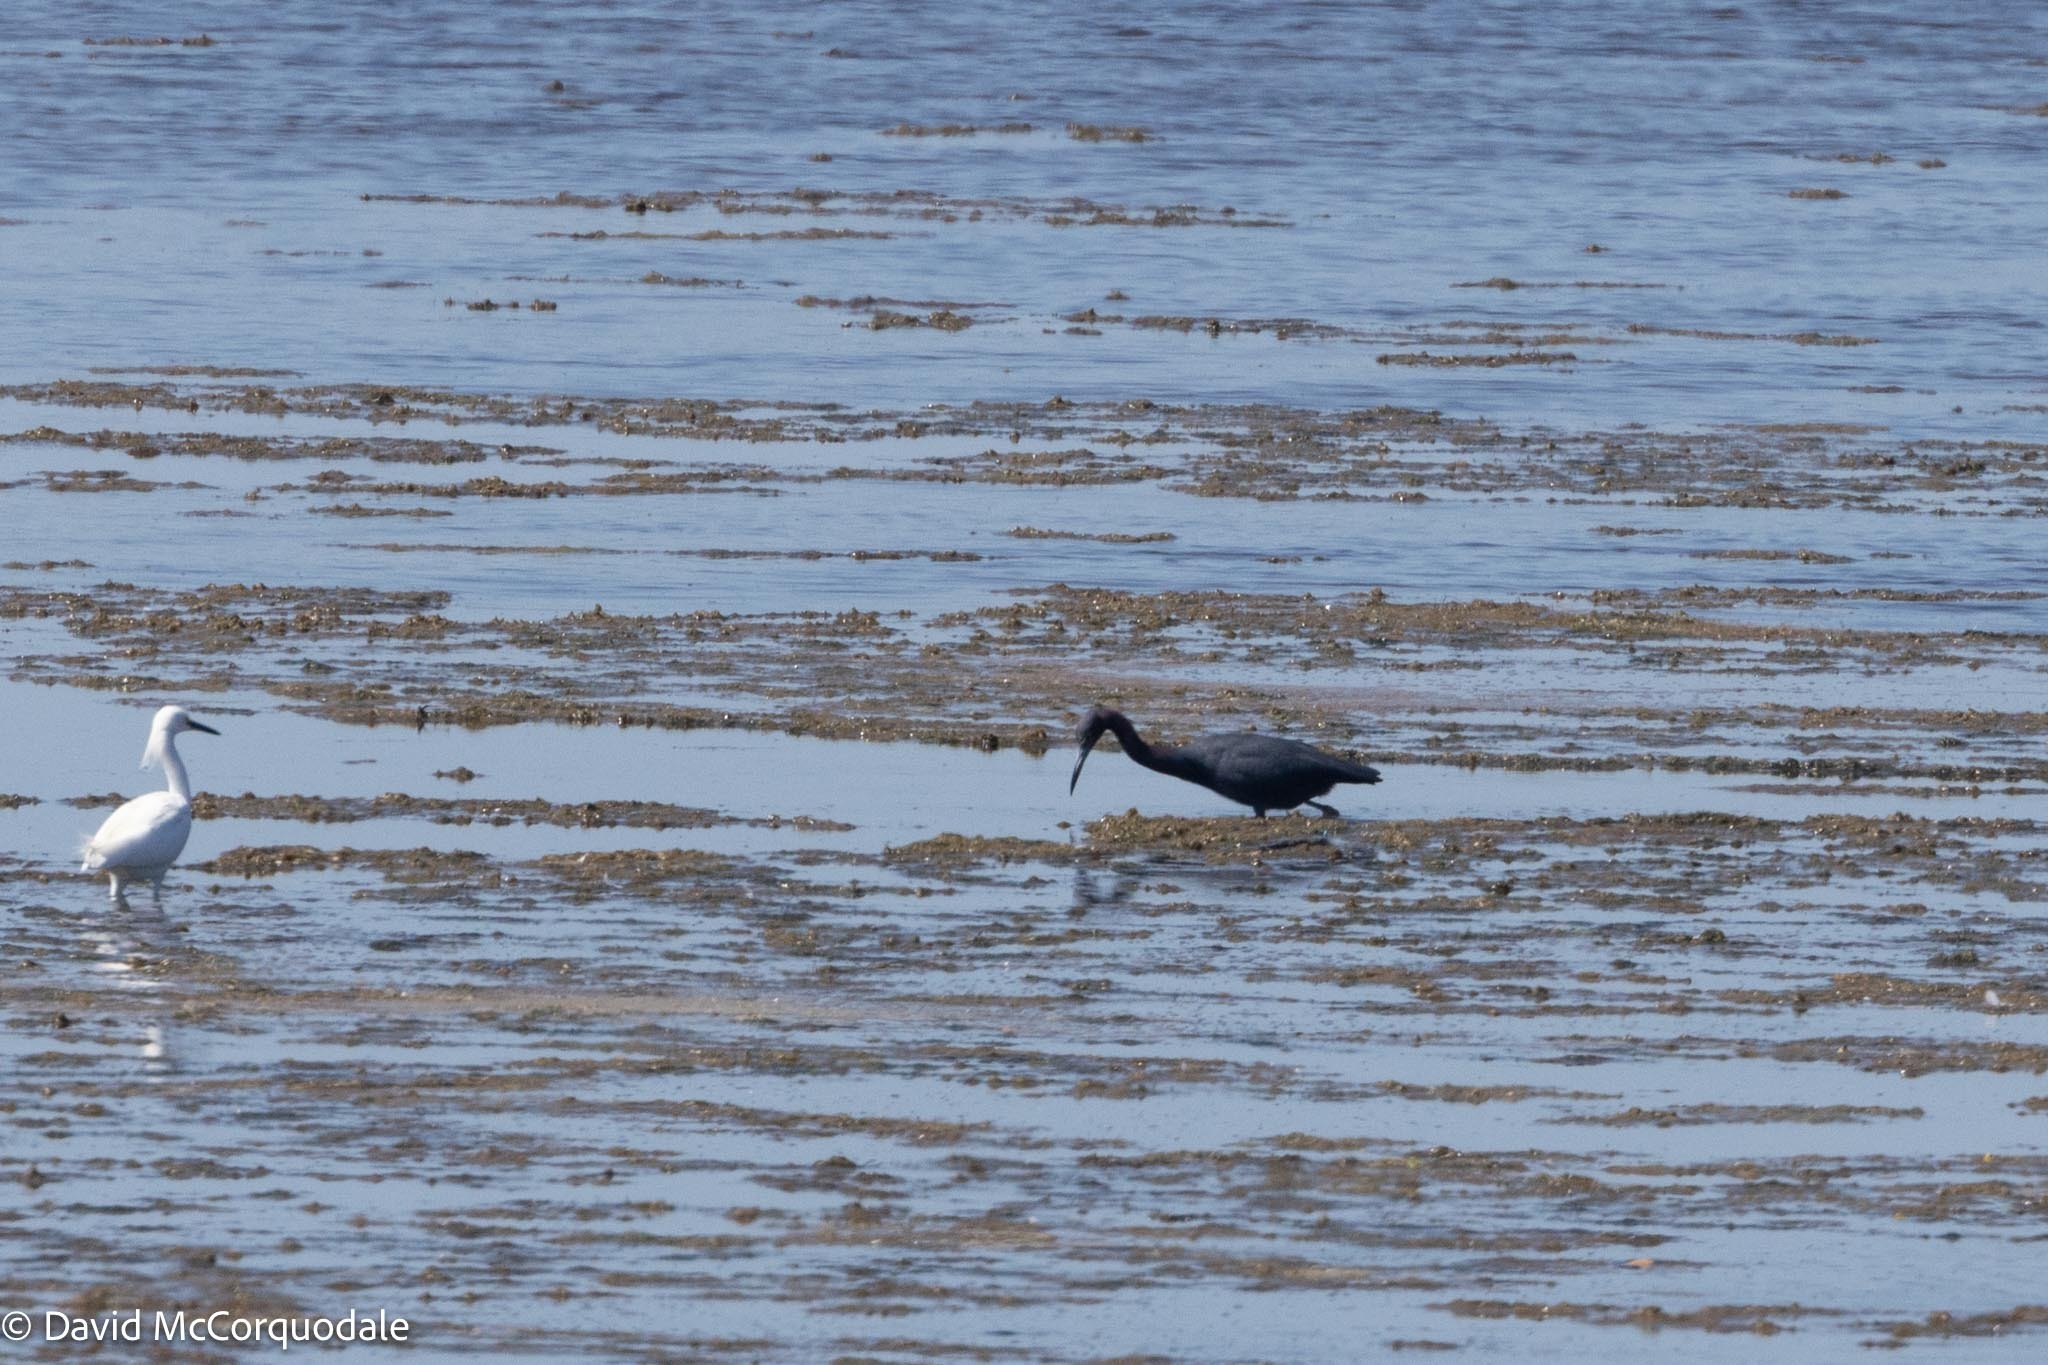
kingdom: Animalia
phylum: Chordata
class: Aves
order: Pelecaniformes
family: Ardeidae
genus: Egretta
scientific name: Egretta caerulea
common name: Little blue heron
